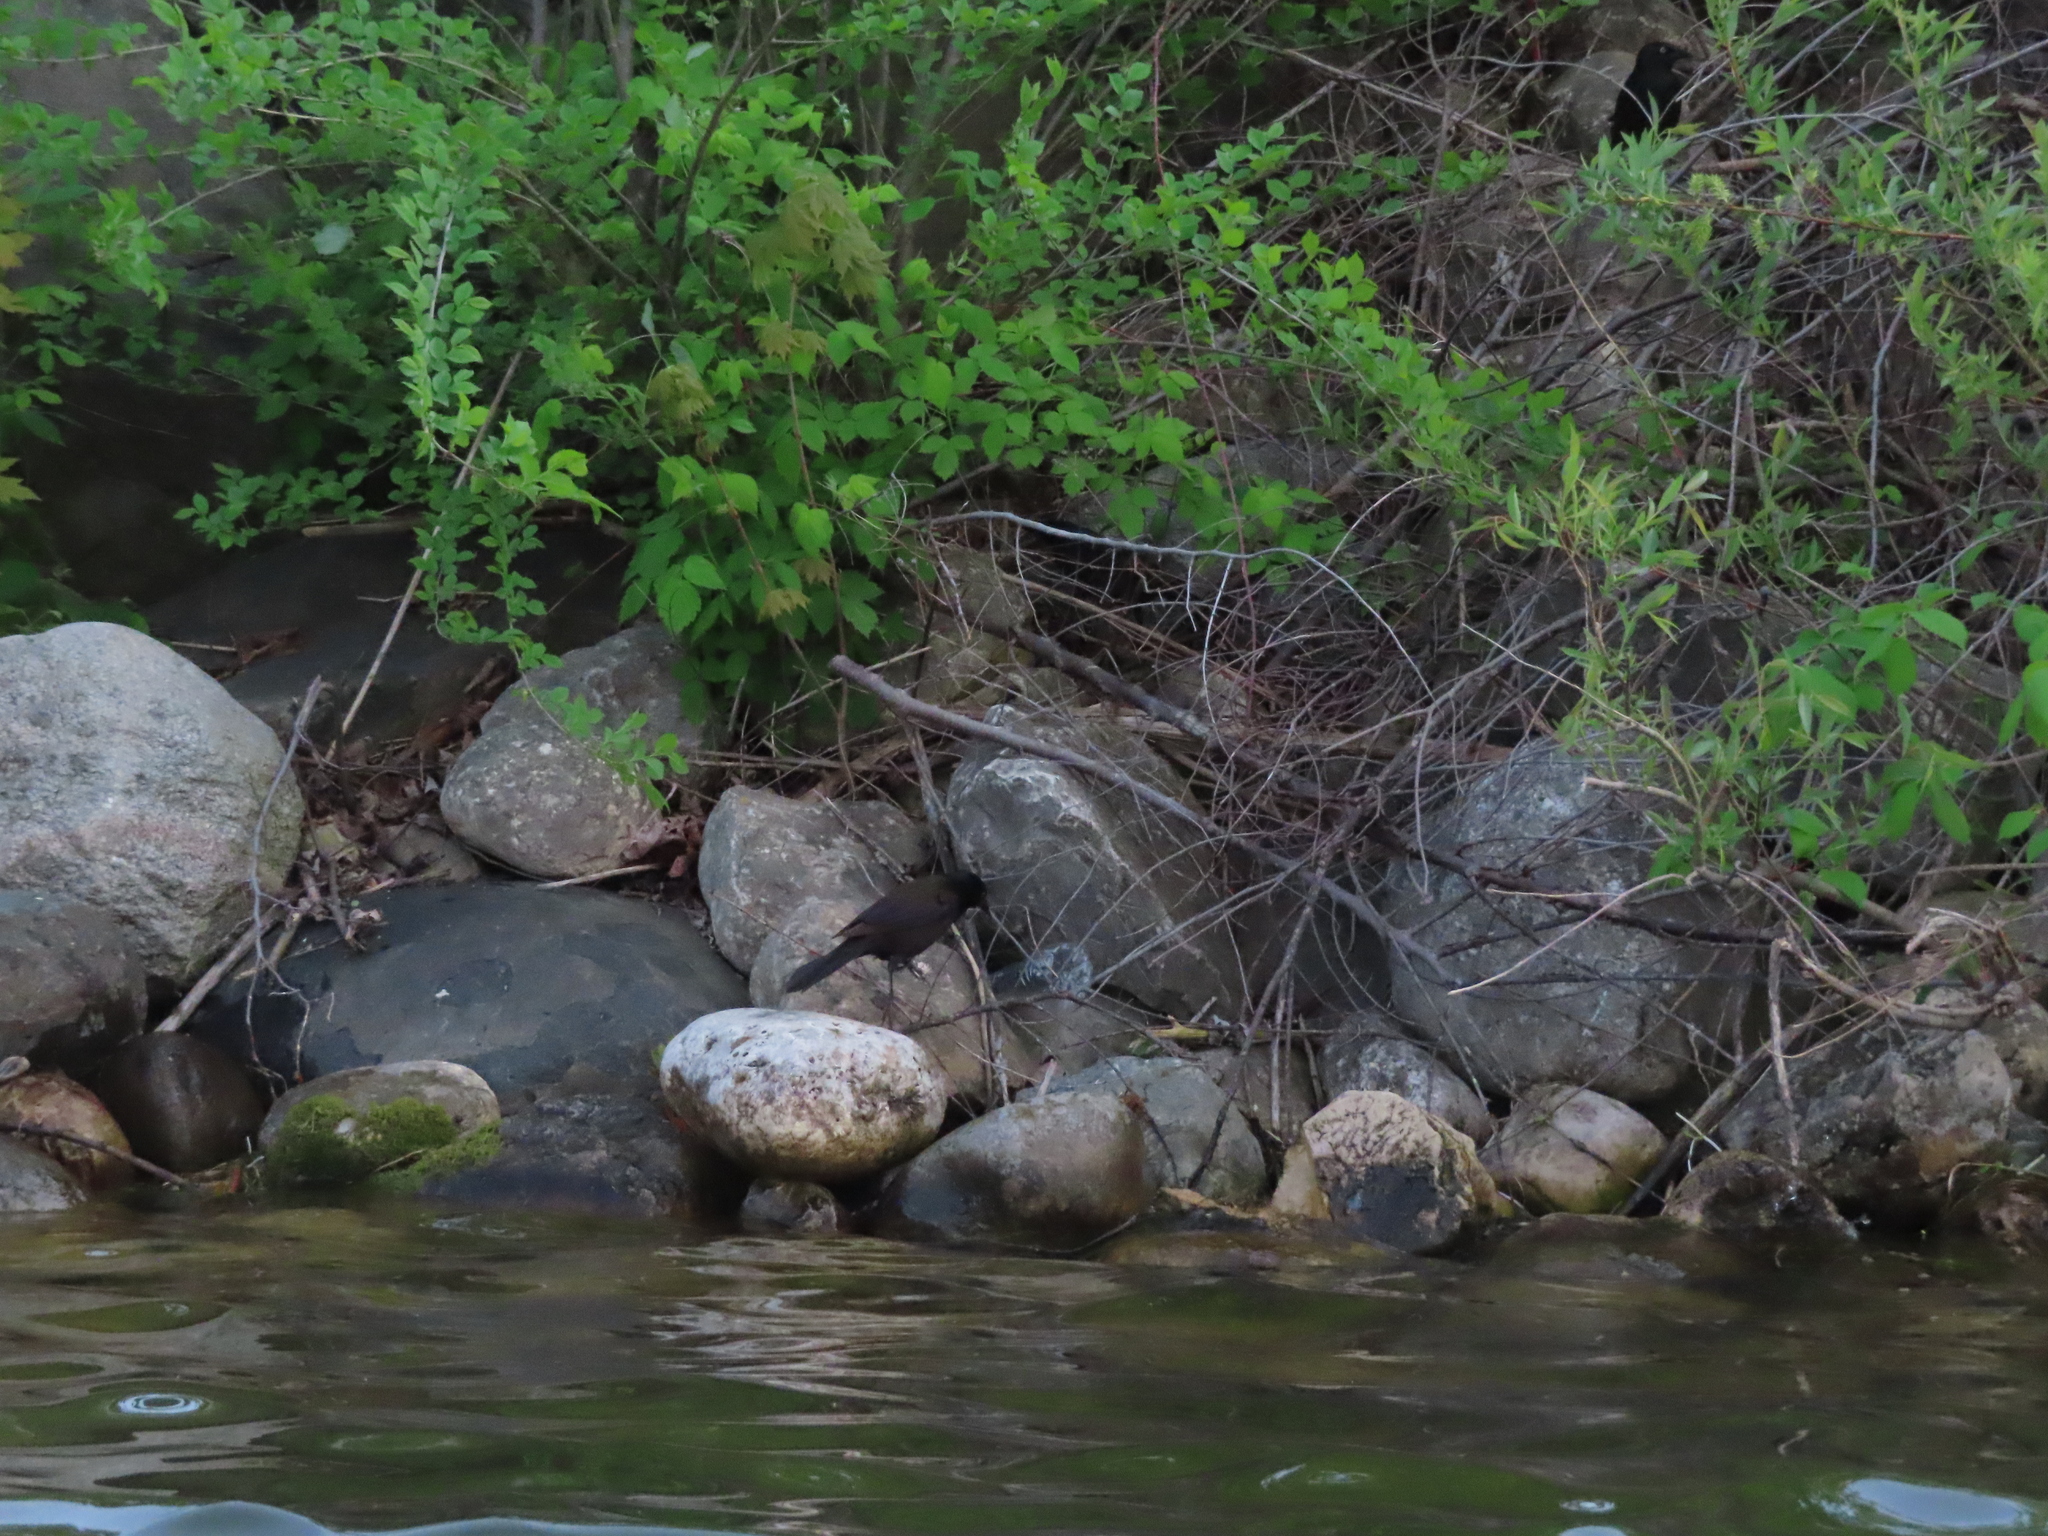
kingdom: Animalia
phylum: Chordata
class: Aves
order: Passeriformes
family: Icteridae
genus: Quiscalus
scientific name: Quiscalus quiscula
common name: Common grackle
